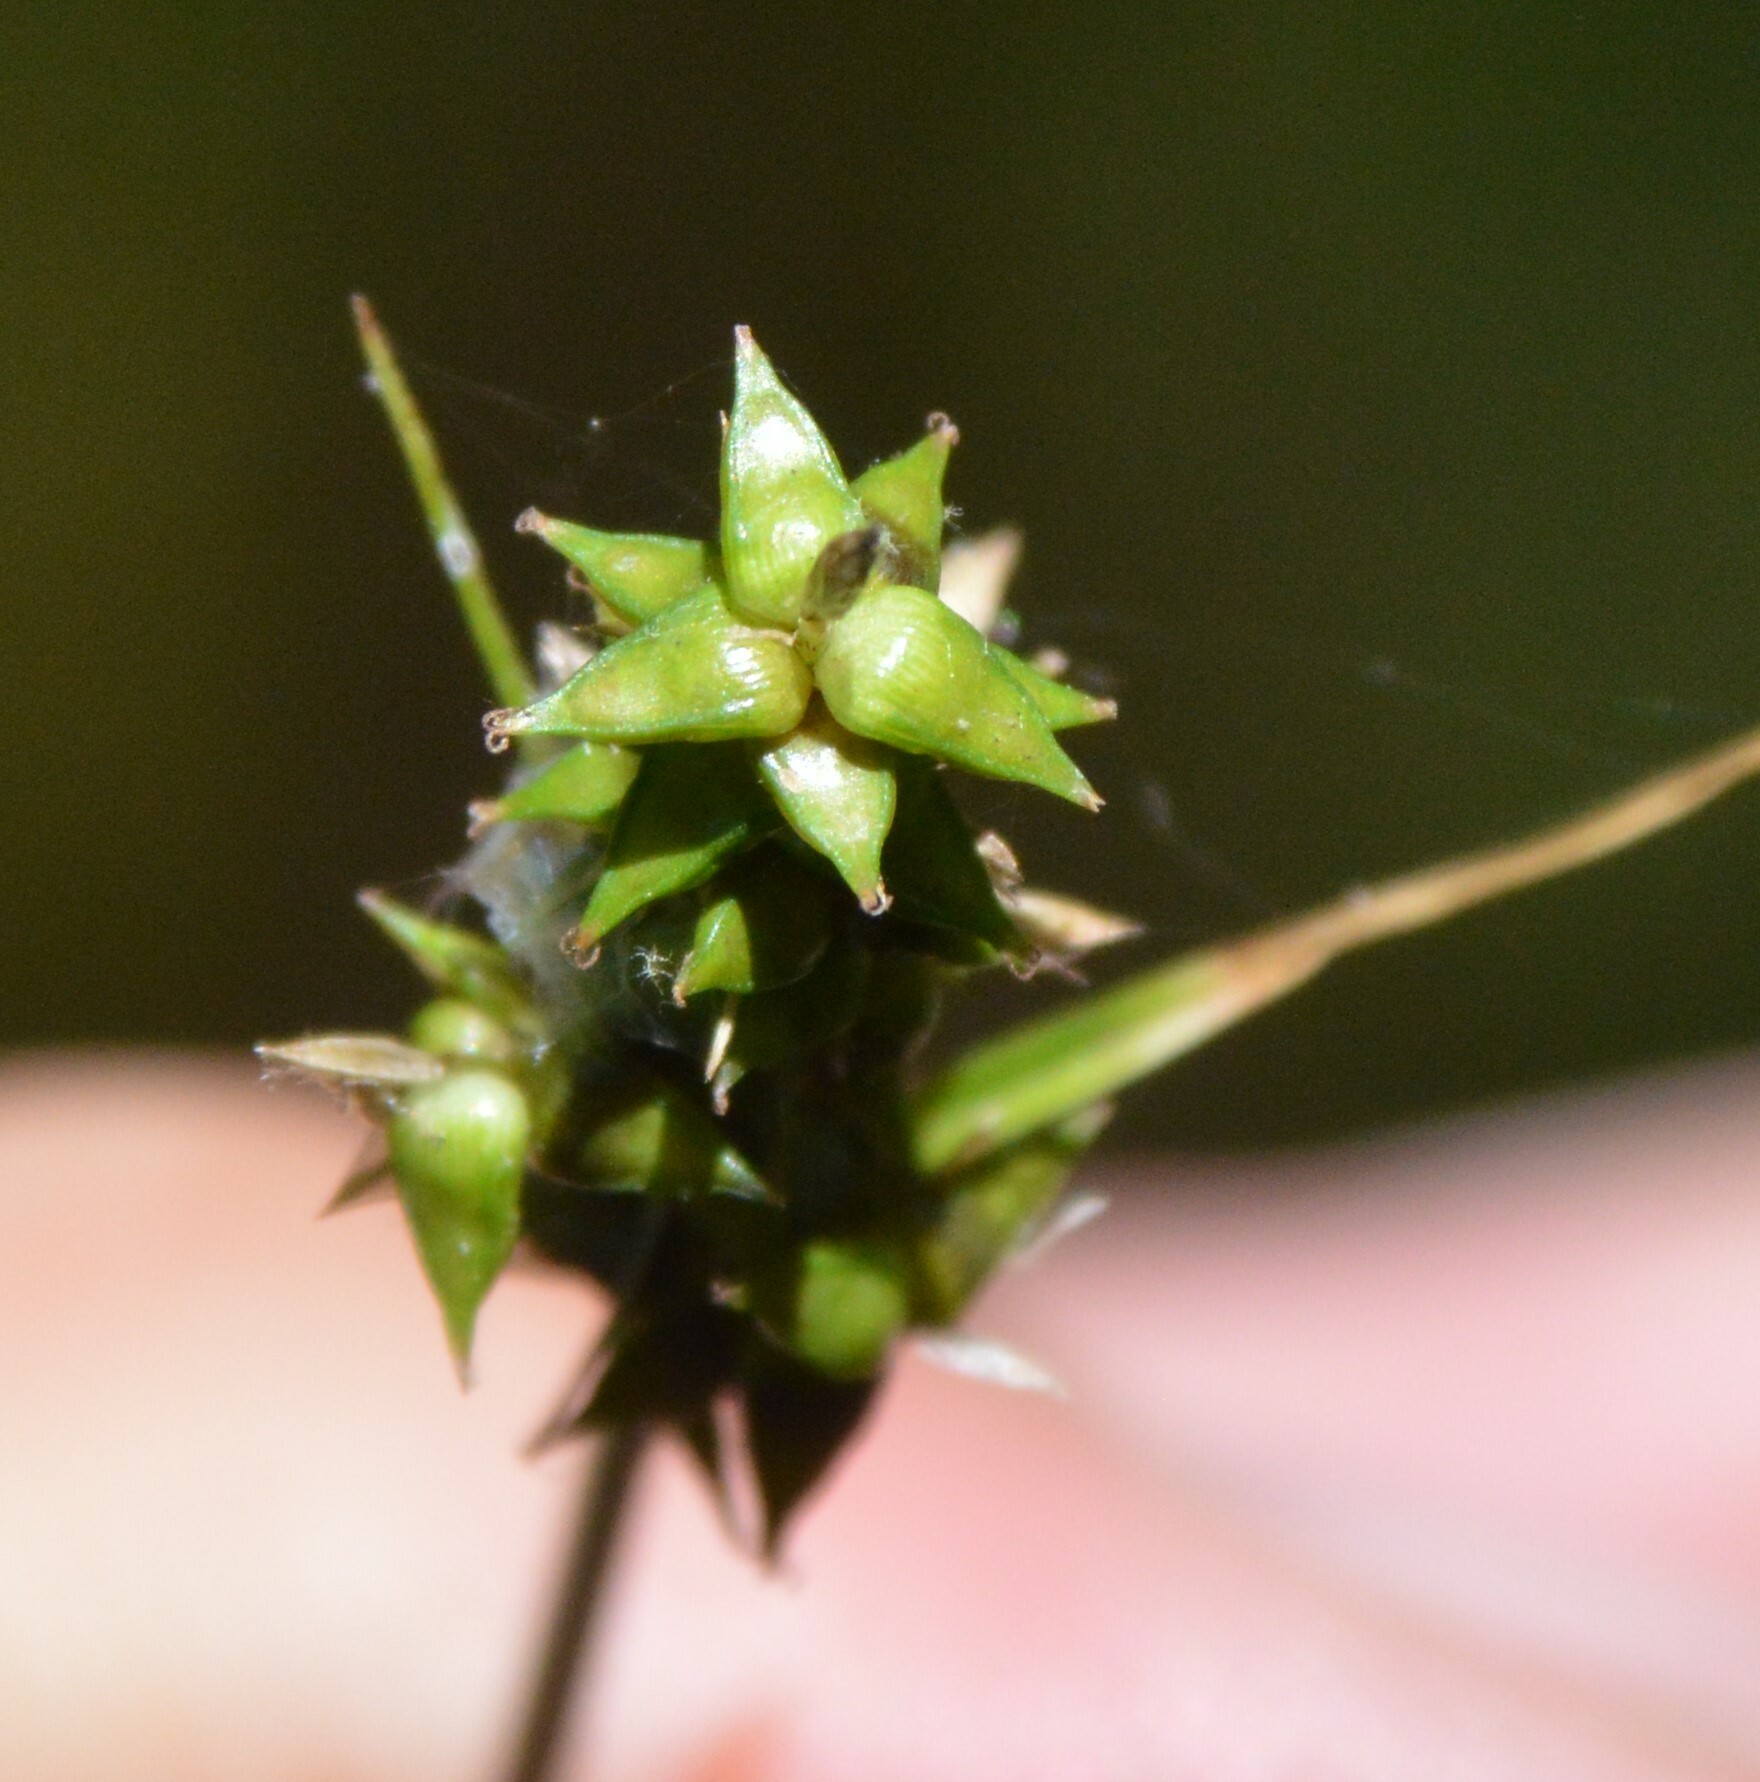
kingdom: Plantae
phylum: Tracheophyta
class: Liliopsida
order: Poales
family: Cyperaceae
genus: Carex
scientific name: Carex retroflexa
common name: Reflexed sedge
